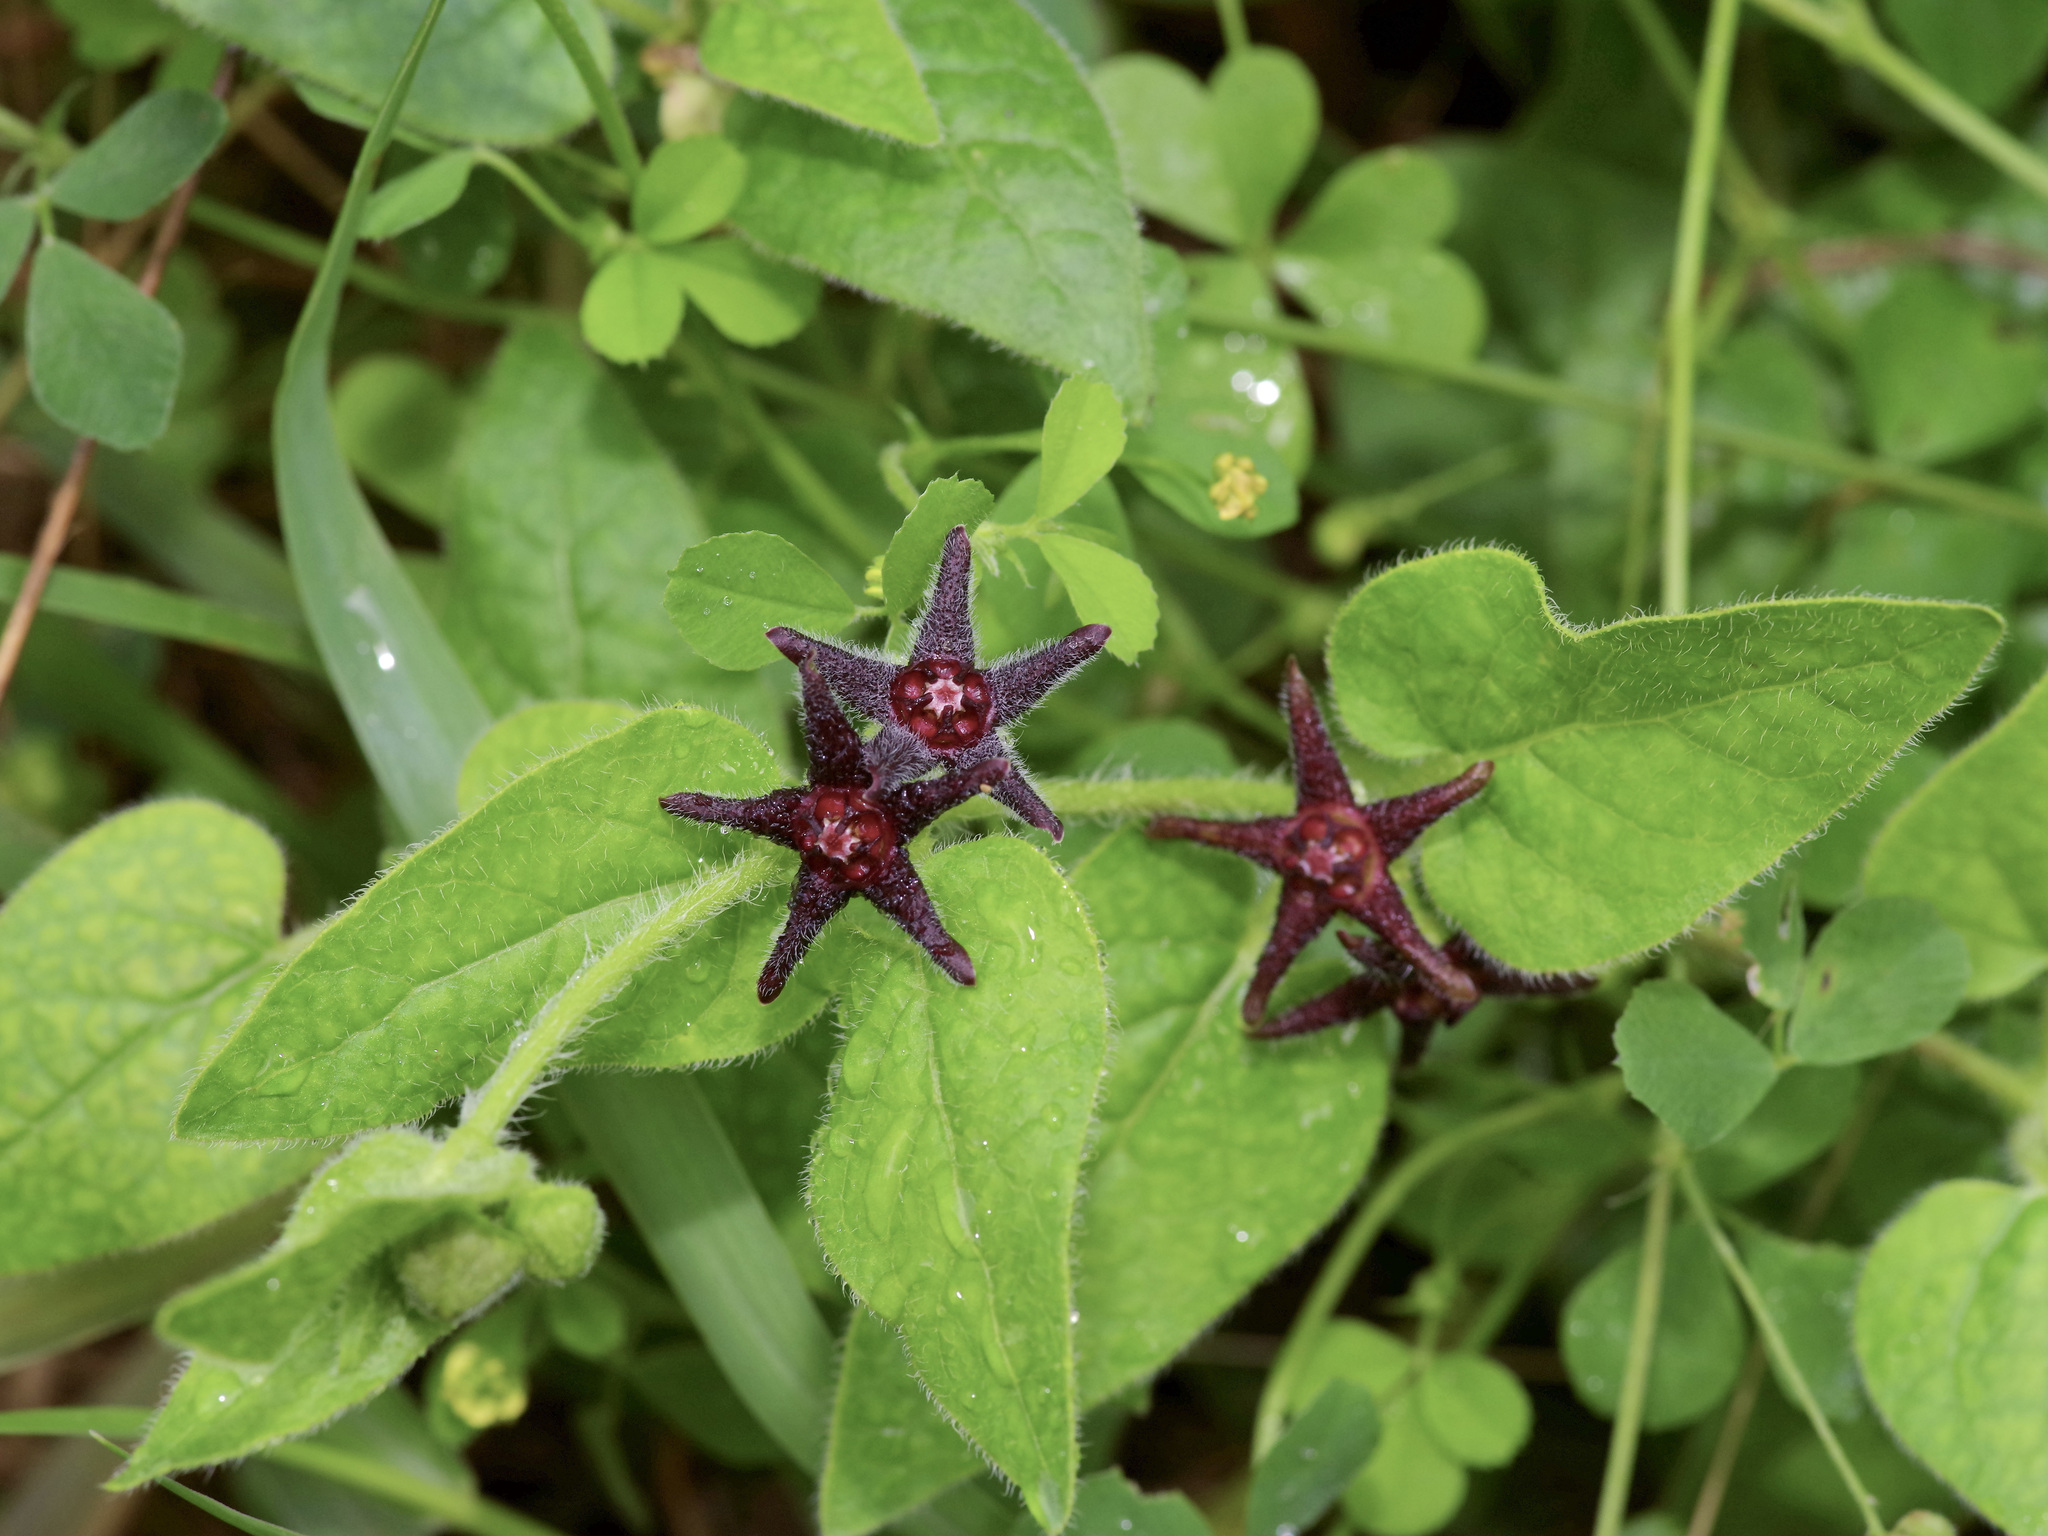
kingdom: Plantae
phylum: Tracheophyta
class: Magnoliopsida
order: Gentianales
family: Apocynaceae
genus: Chthamalia
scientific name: Chthamalia biflora
